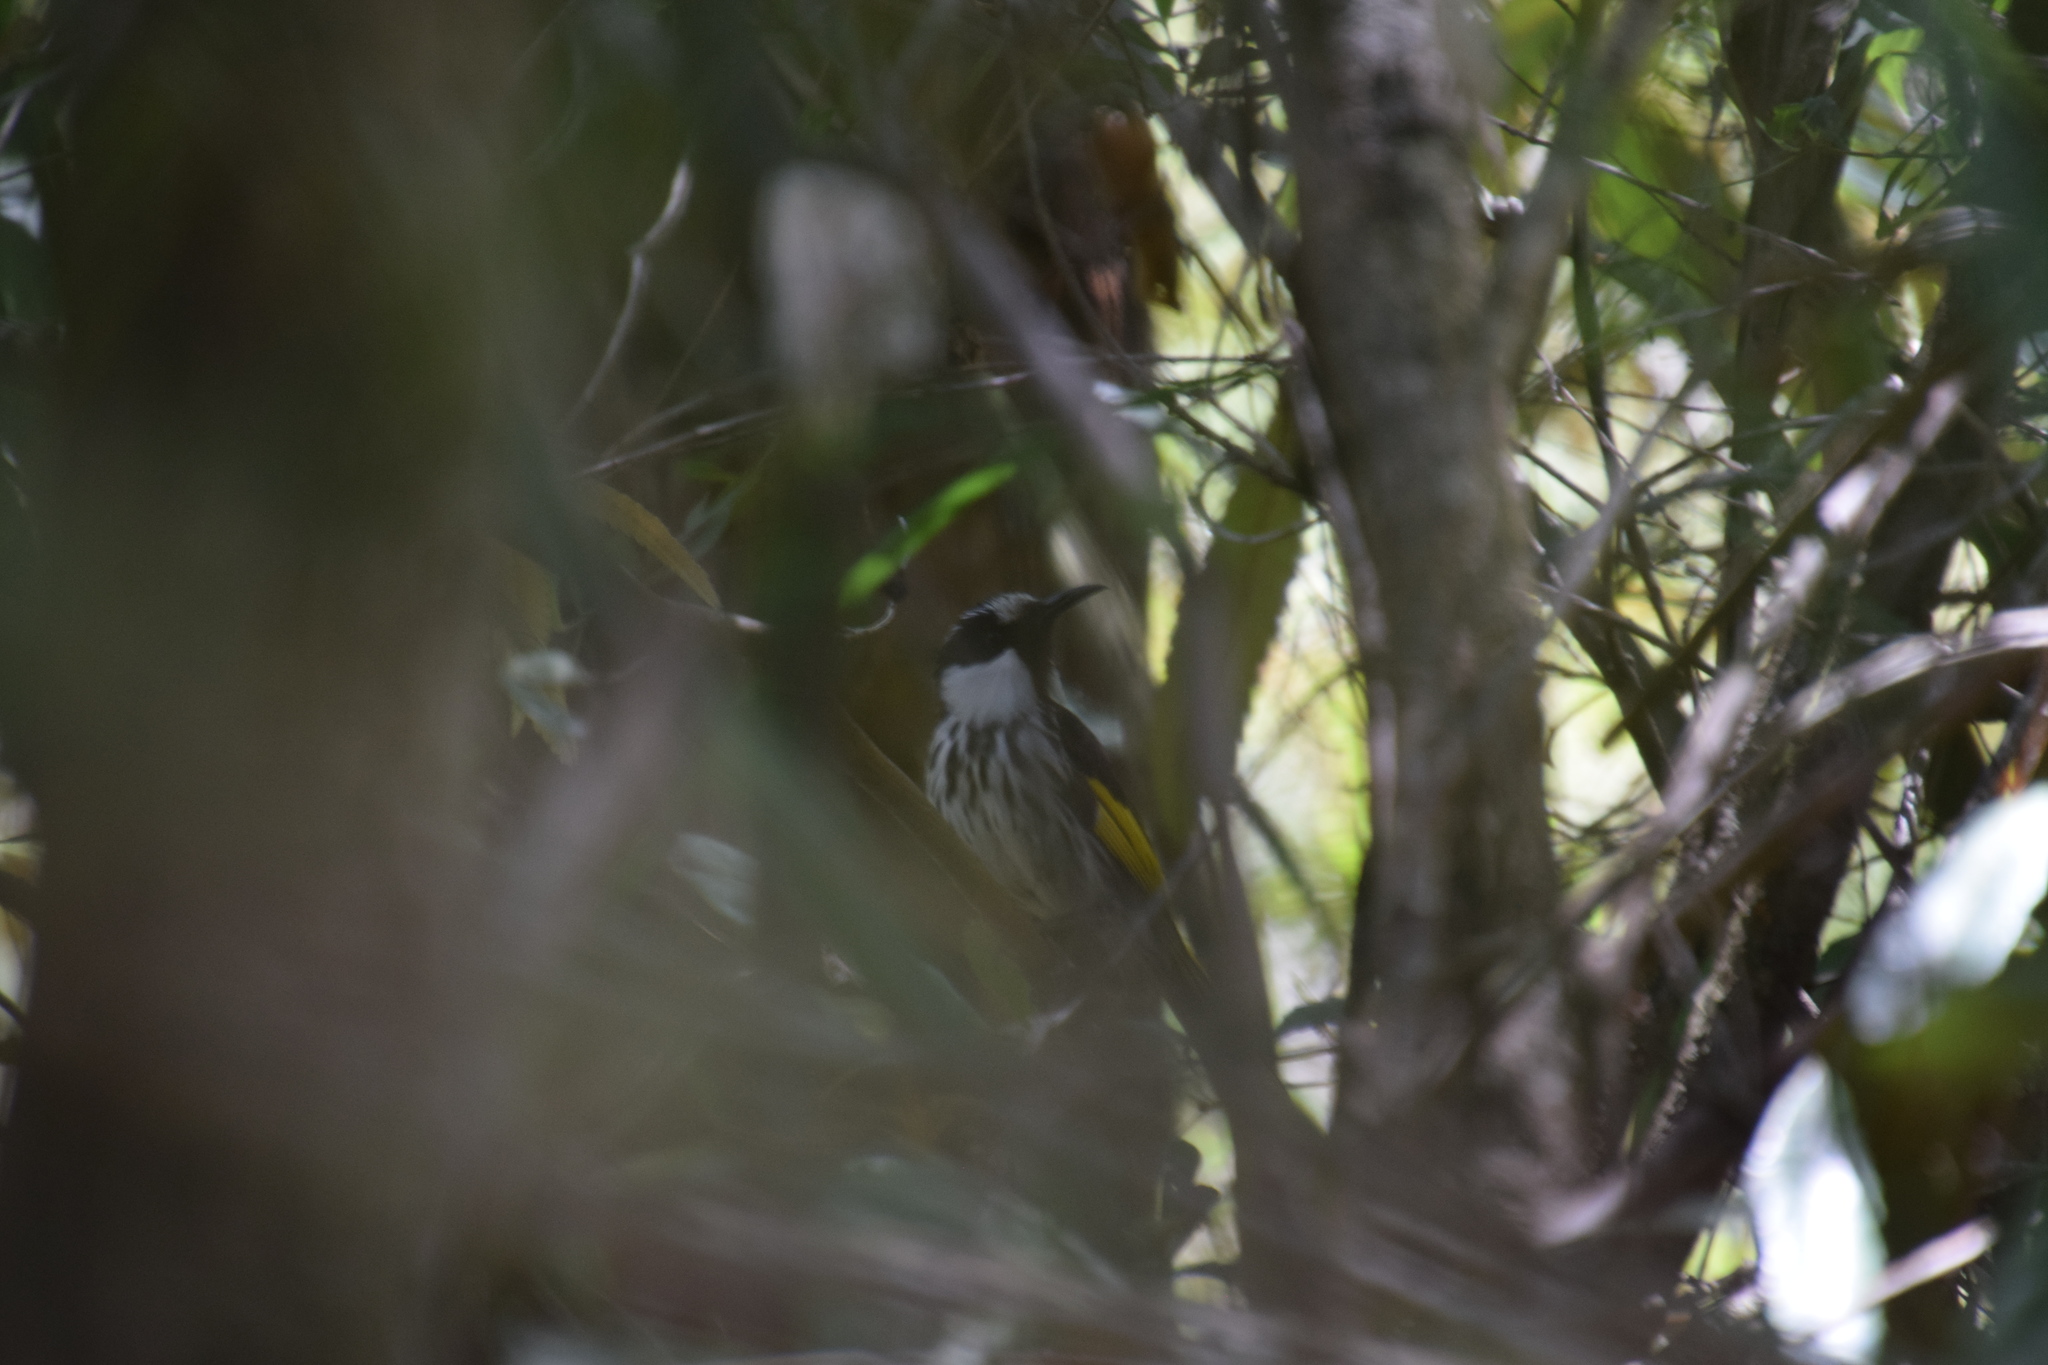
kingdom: Animalia
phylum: Chordata
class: Aves
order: Passeriformes
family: Meliphagidae
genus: Phylidonyris
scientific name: Phylidonyris niger
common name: White-cheeked honeyeater
